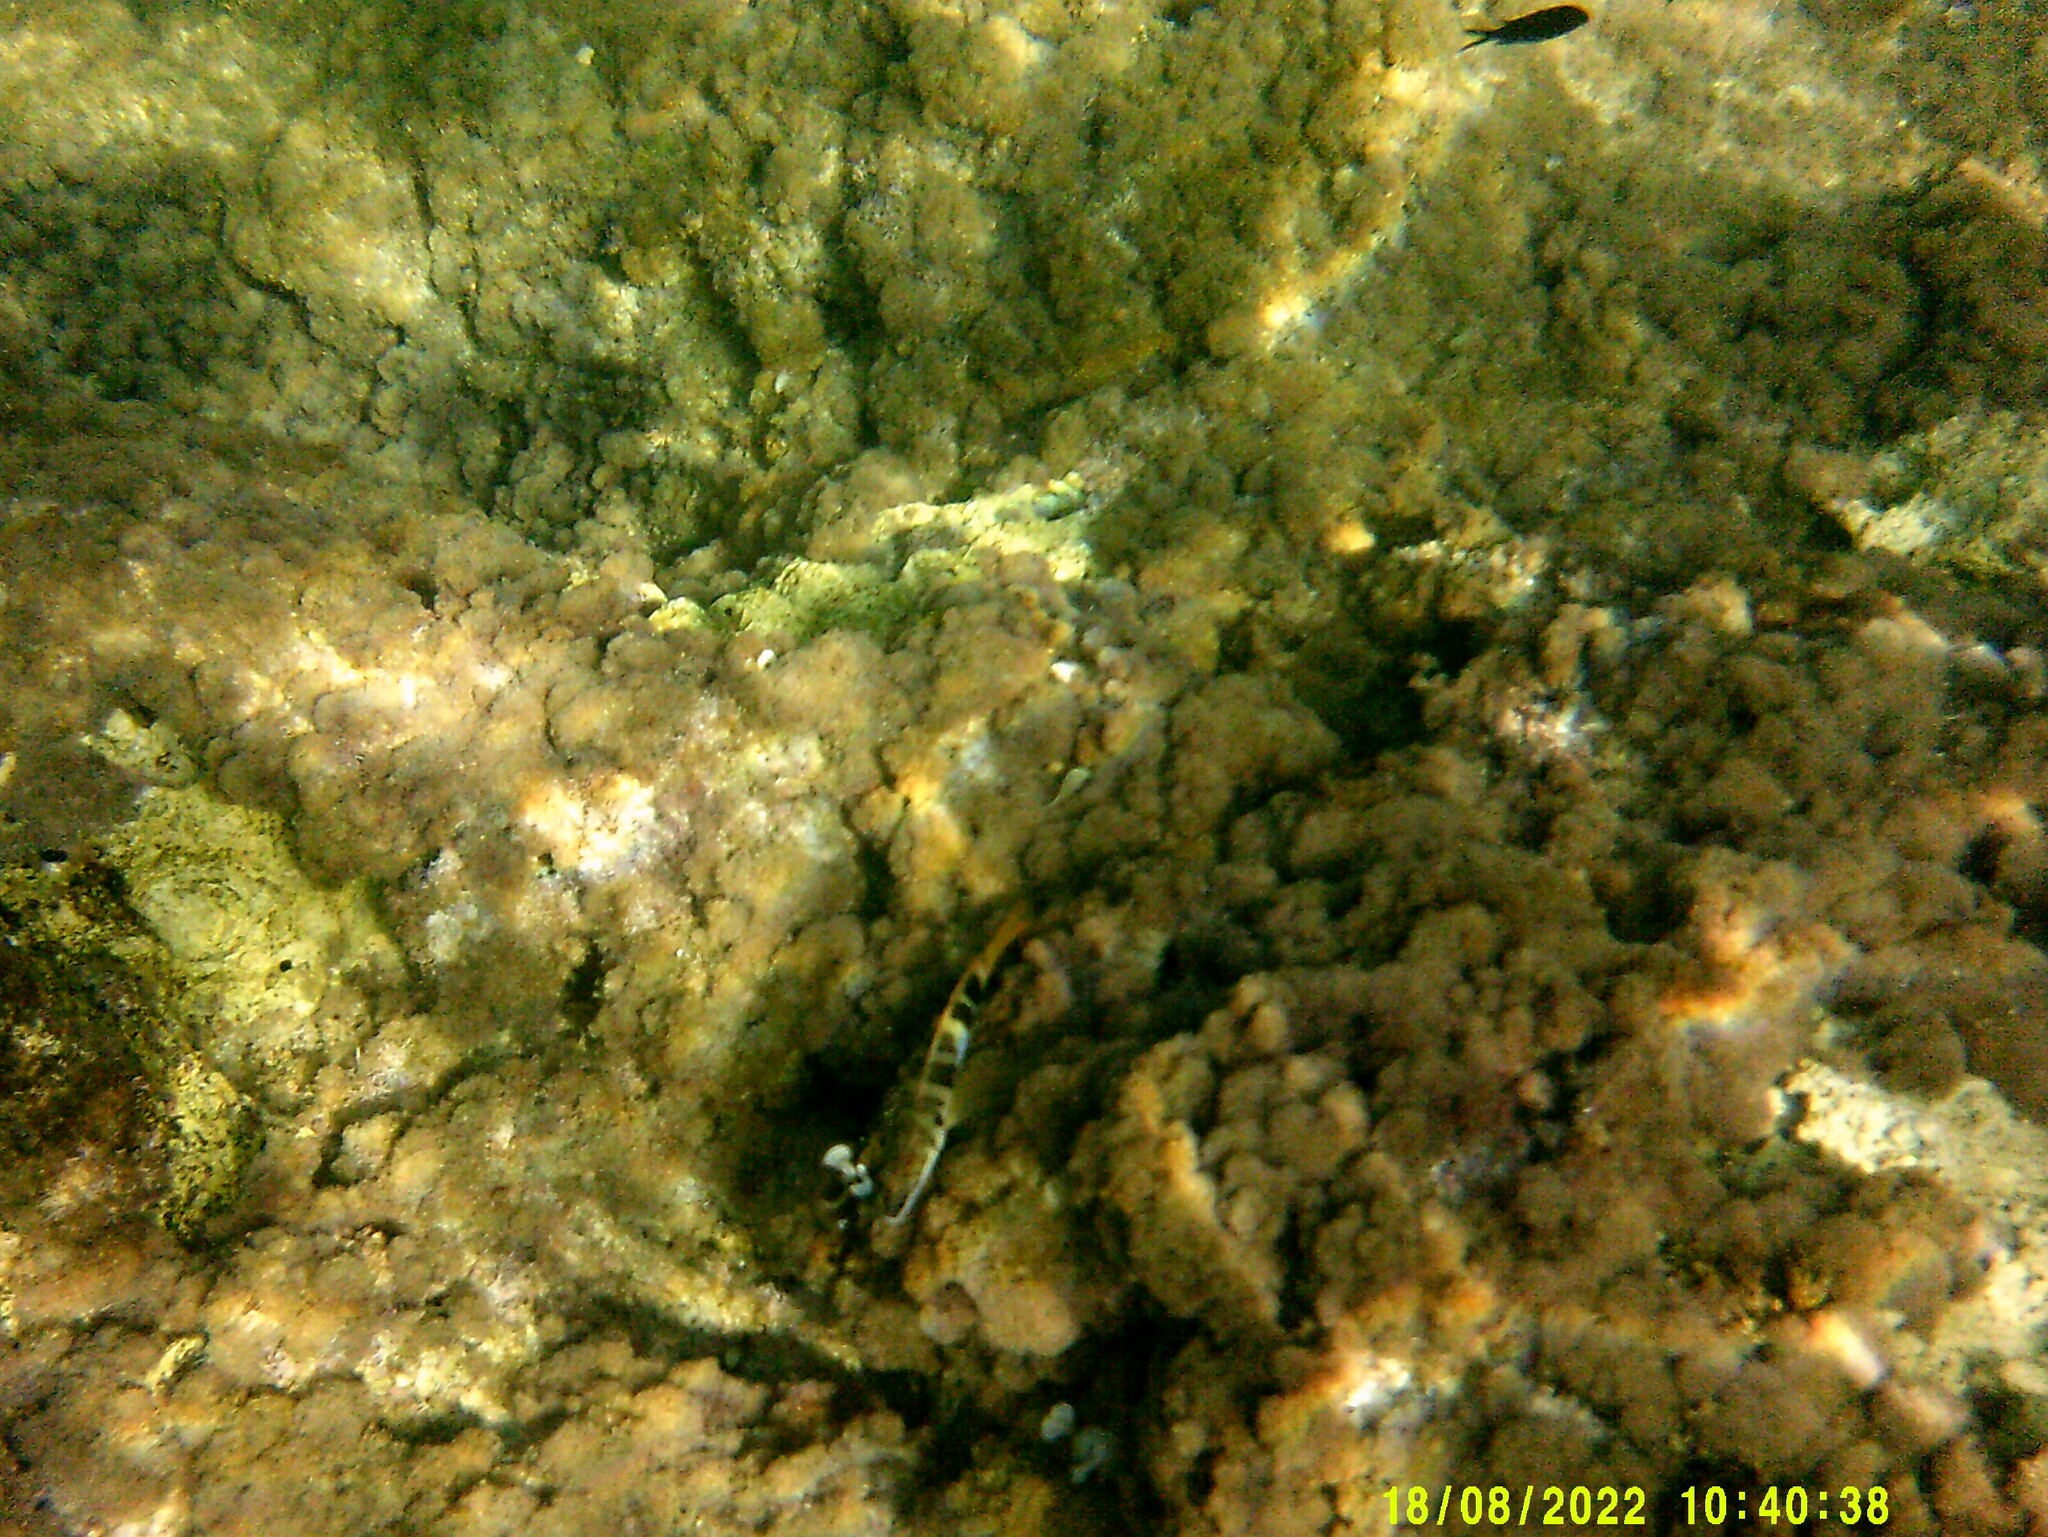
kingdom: Animalia
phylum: Chordata
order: Perciformes
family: Serranidae
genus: Serranus
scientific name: Serranus scriba
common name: Painted comber
